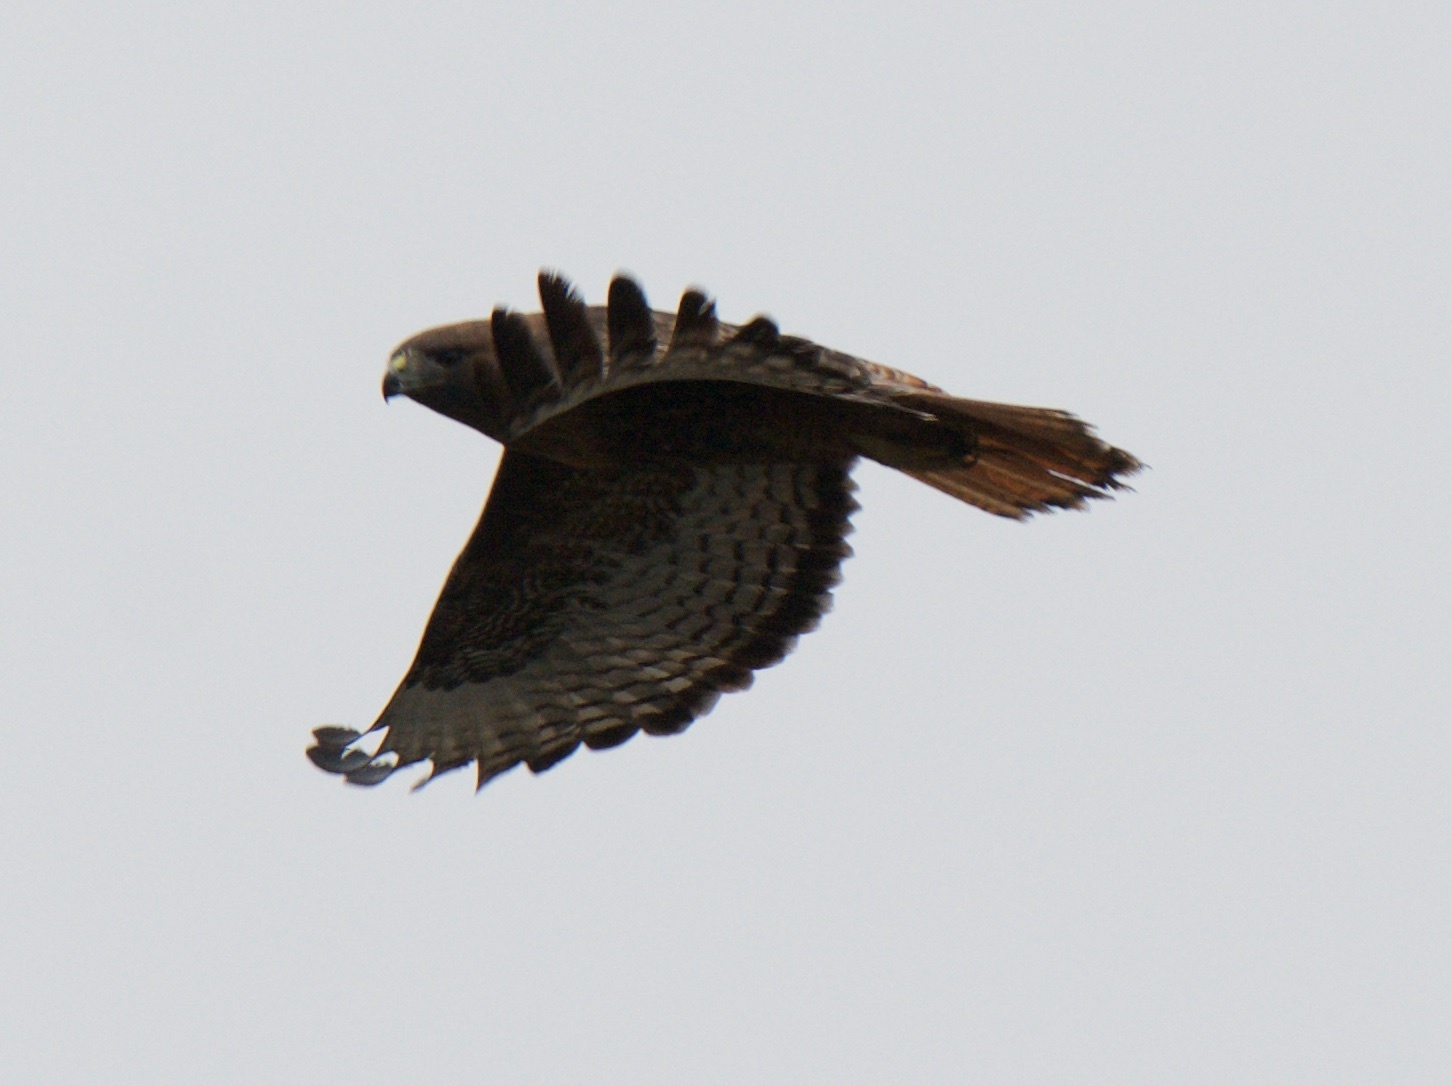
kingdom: Animalia
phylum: Chordata
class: Aves
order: Accipitriformes
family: Accipitridae
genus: Buteo
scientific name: Buteo jamaicensis
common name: Red-tailed hawk
